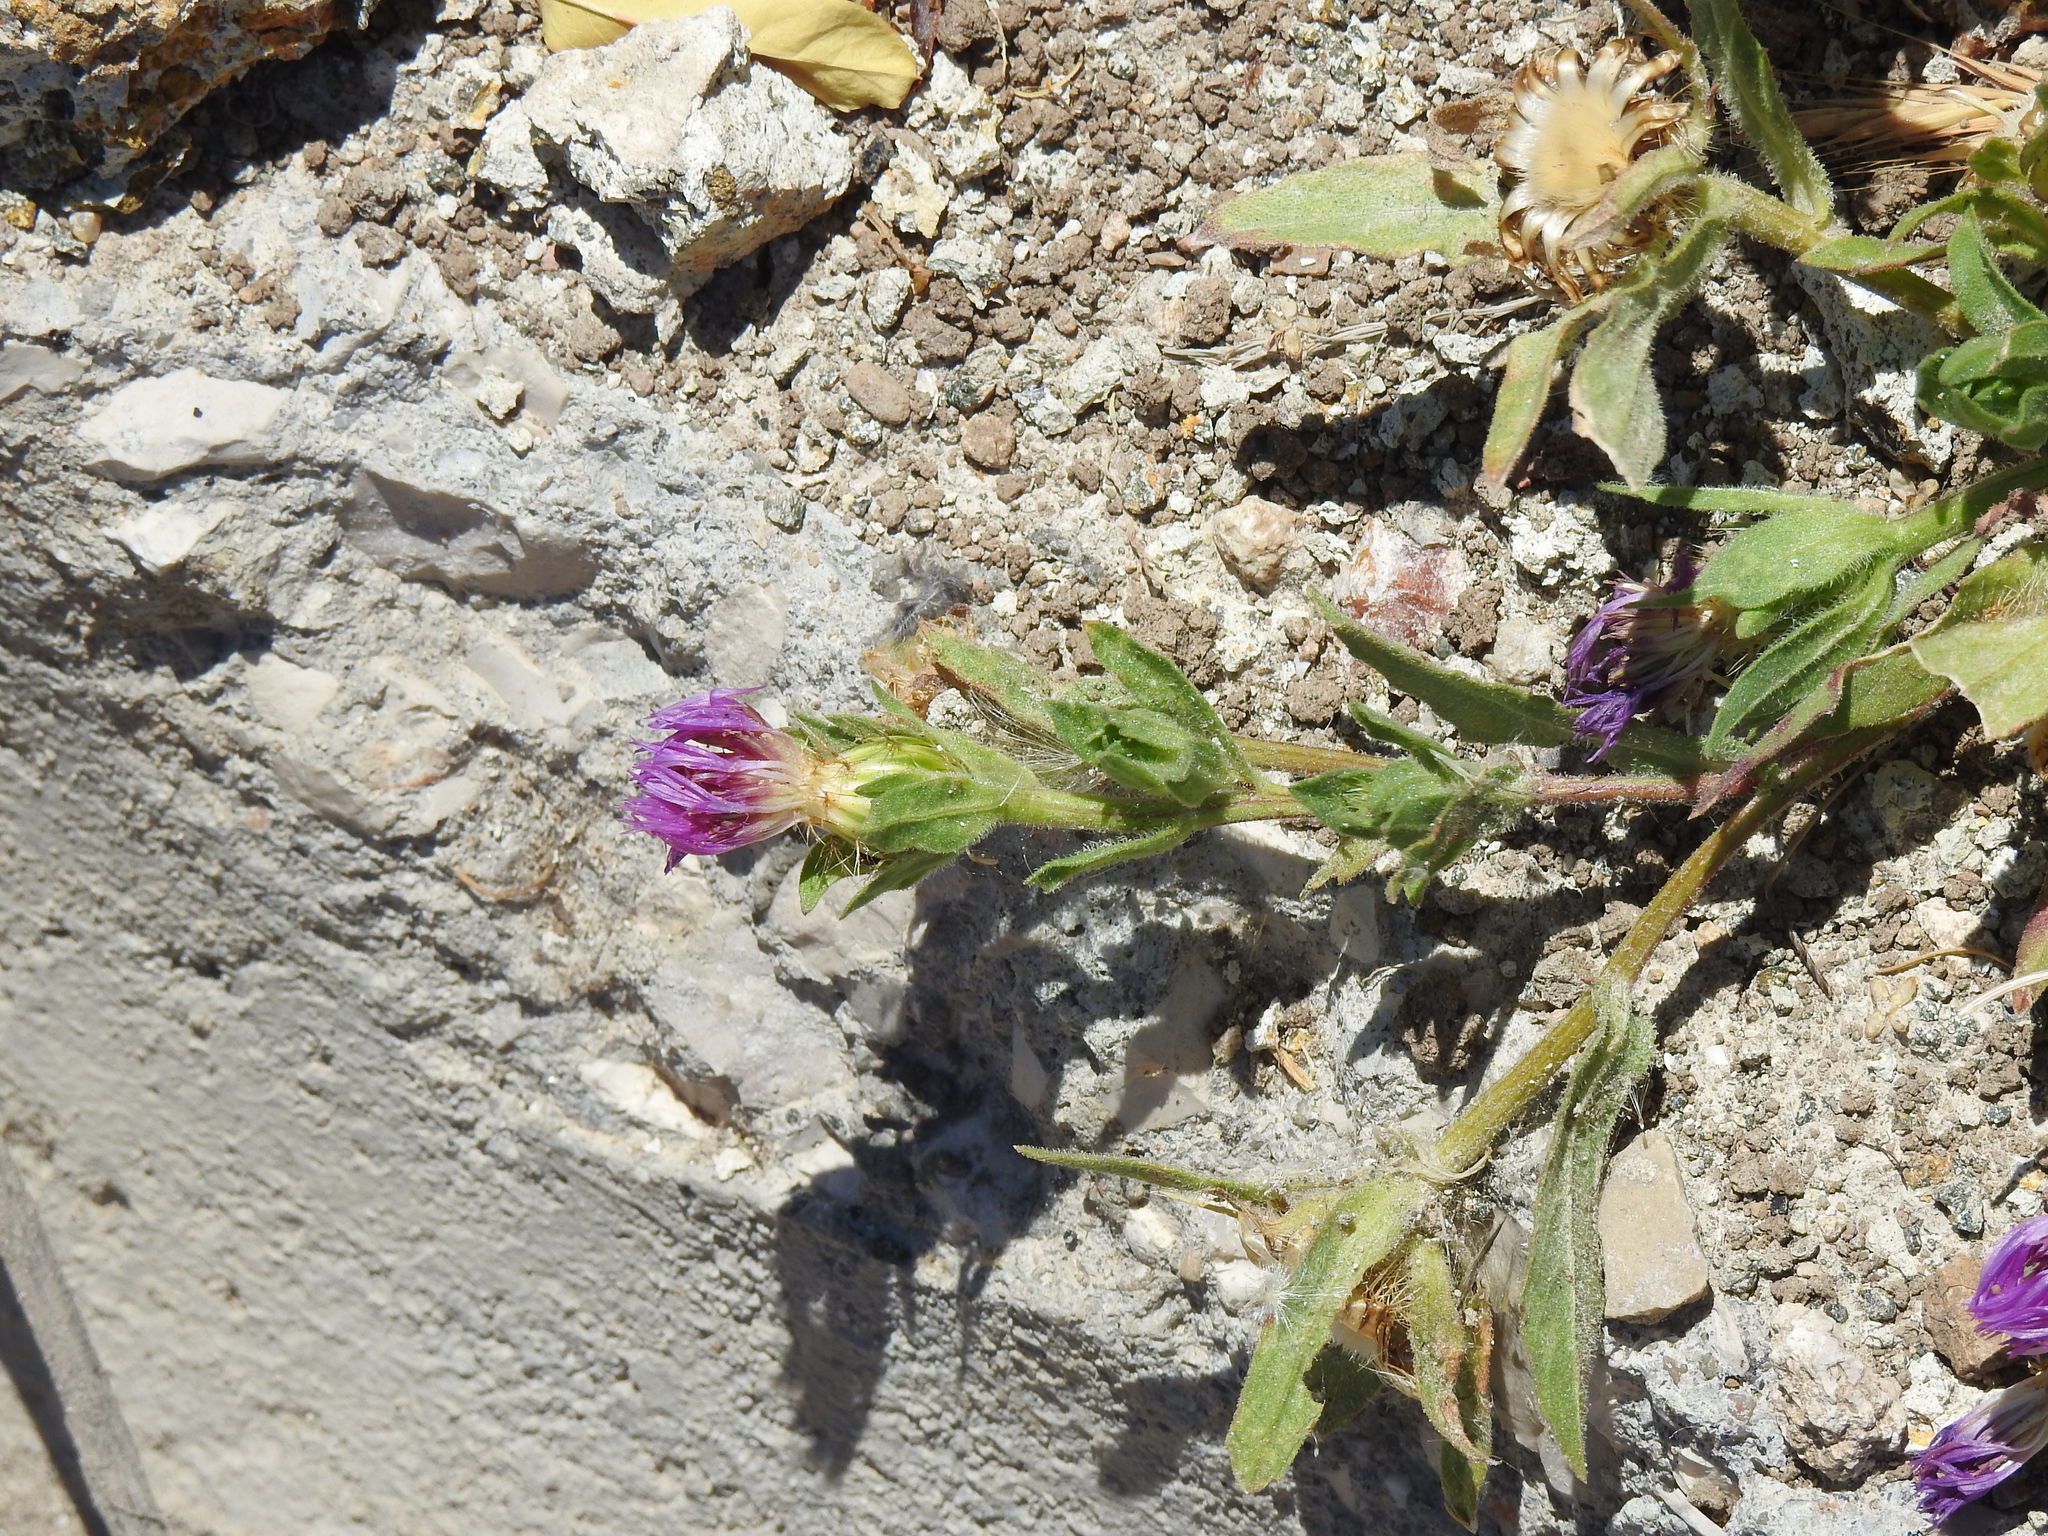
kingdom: Plantae
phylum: Tracheophyta
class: Magnoliopsida
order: Asterales
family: Asteraceae
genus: Centaurea
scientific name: Centaurea pullata
